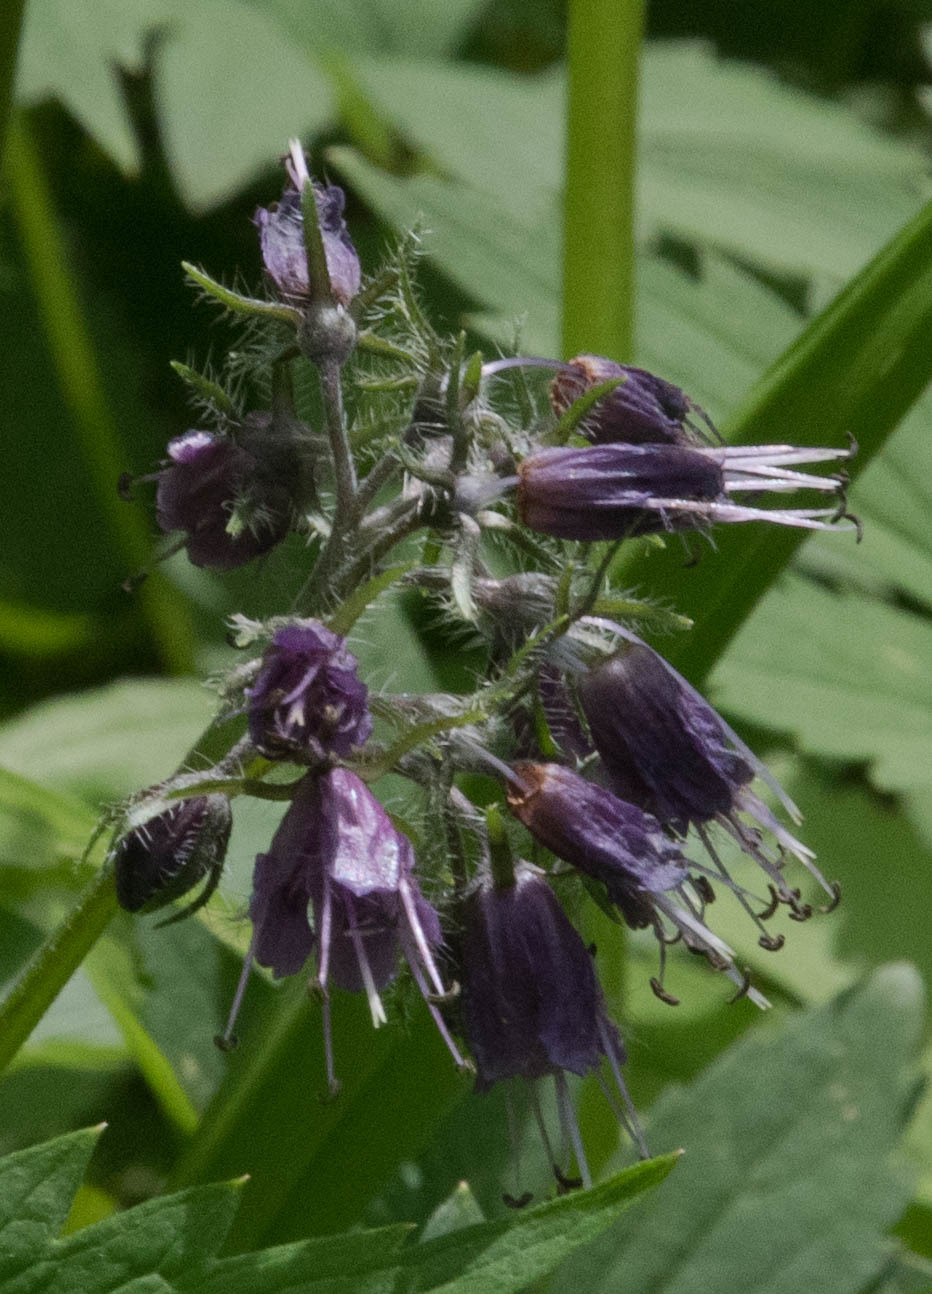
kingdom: Plantae
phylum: Tracheophyta
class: Magnoliopsida
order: Boraginales
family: Hydrophyllaceae
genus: Hydrophyllum
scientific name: Hydrophyllum virginianum
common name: Virginia waterleaf
